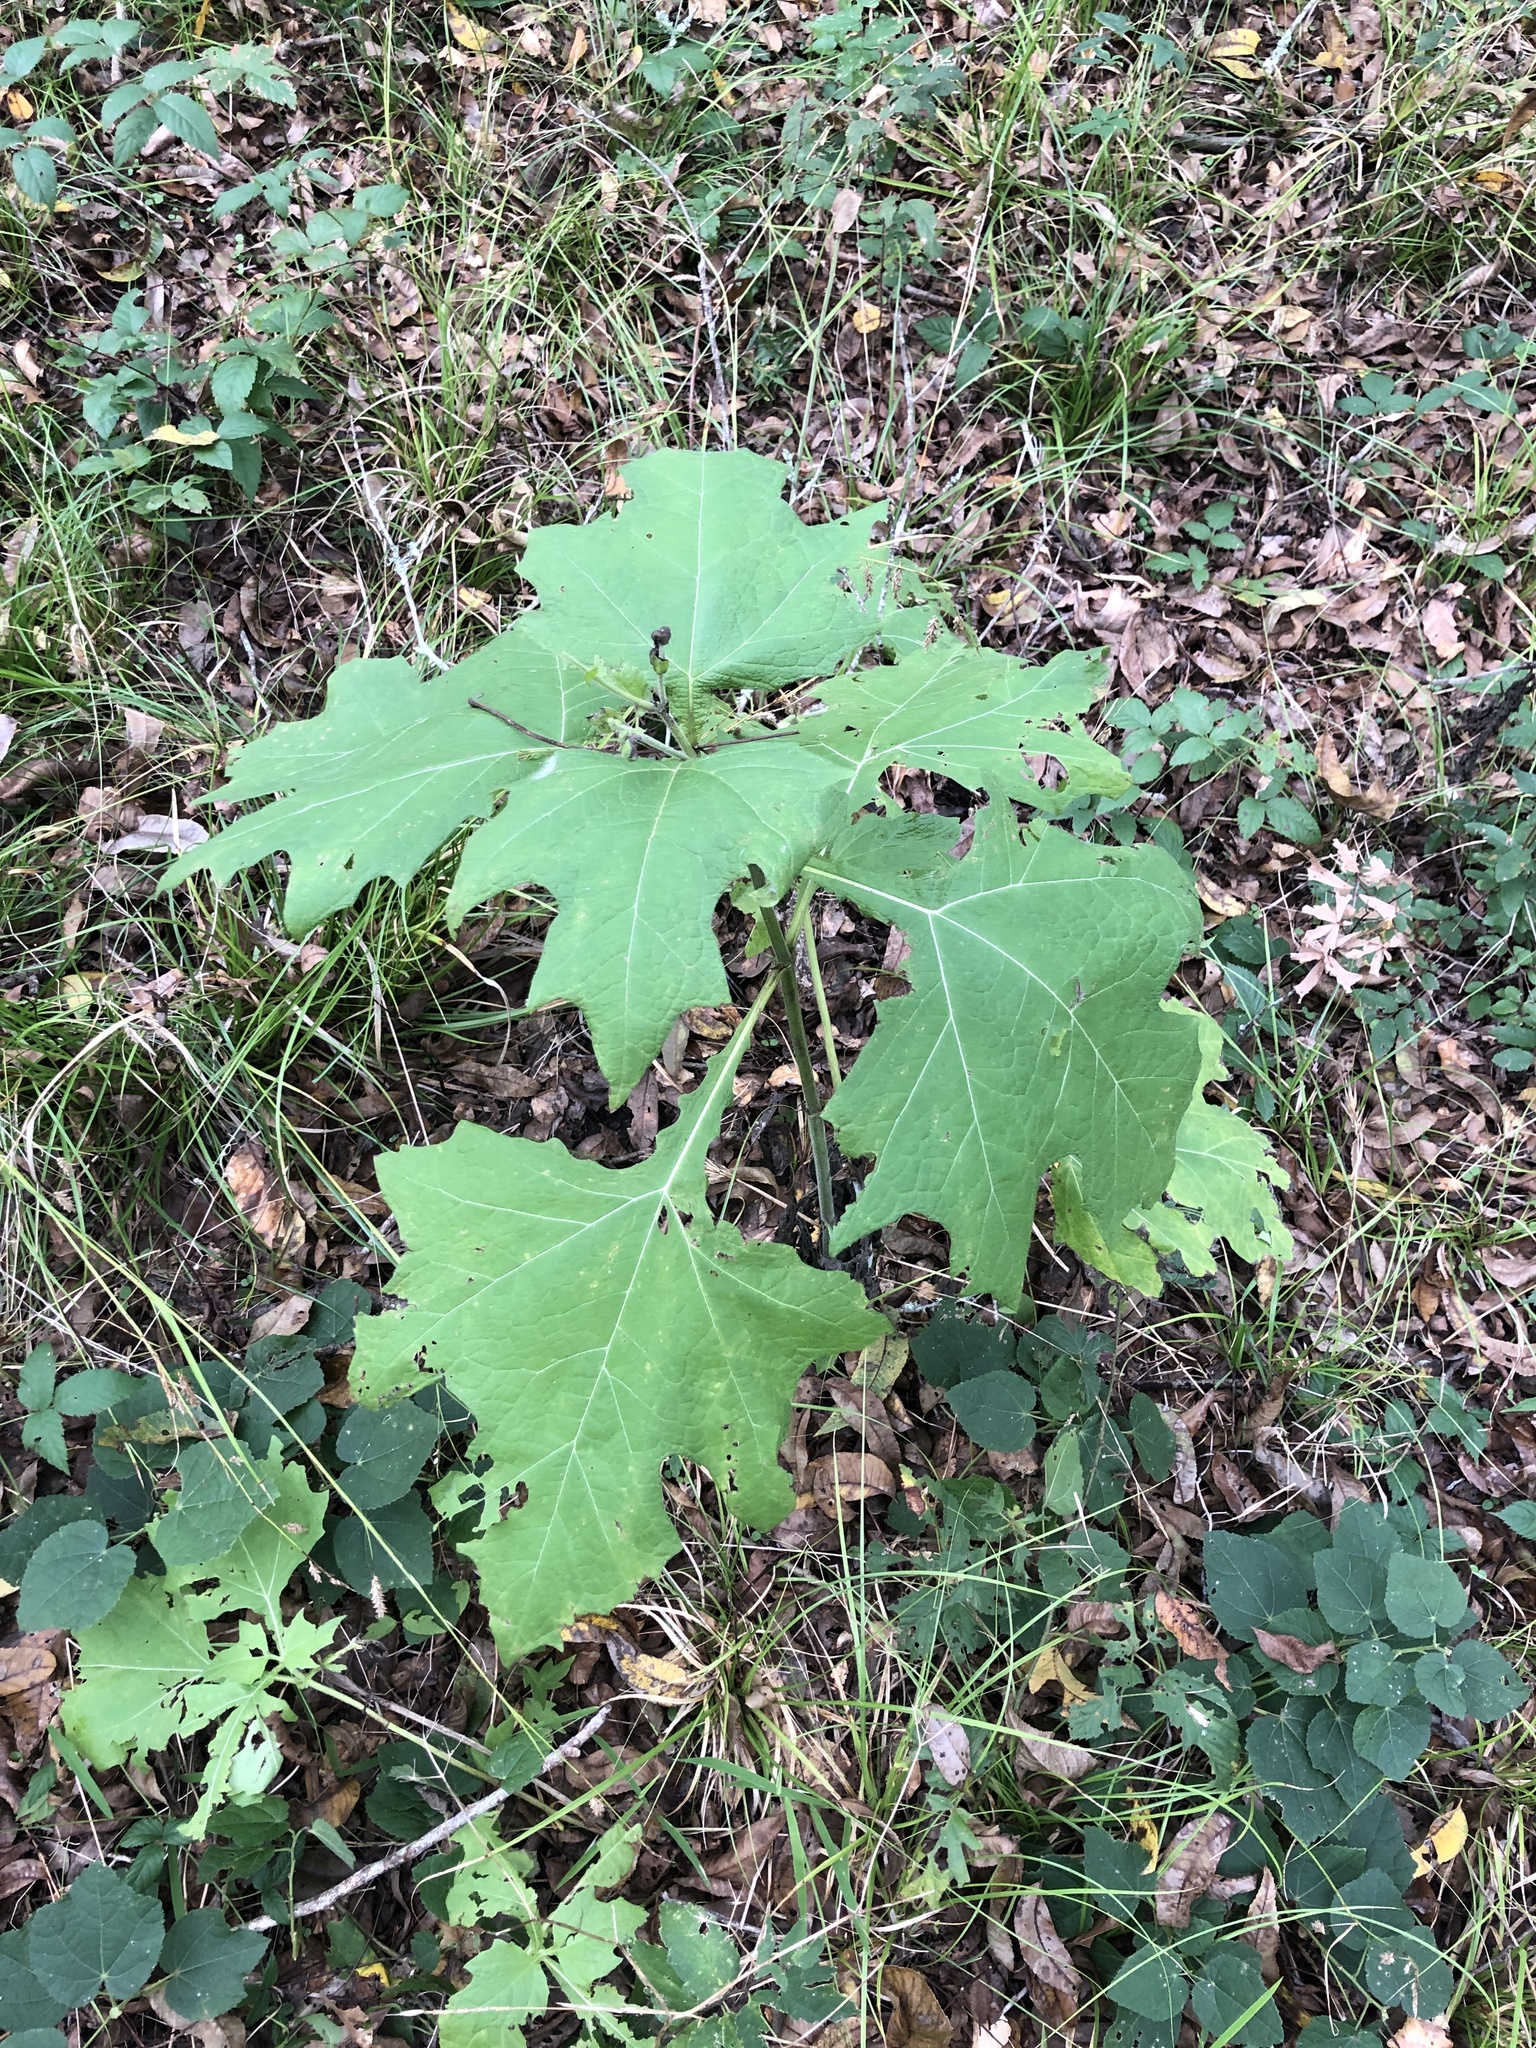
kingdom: Plantae
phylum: Tracheophyta
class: Magnoliopsida
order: Asterales
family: Asteraceae
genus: Smallanthus
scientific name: Smallanthus uvedalia
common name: Bear's-foot
